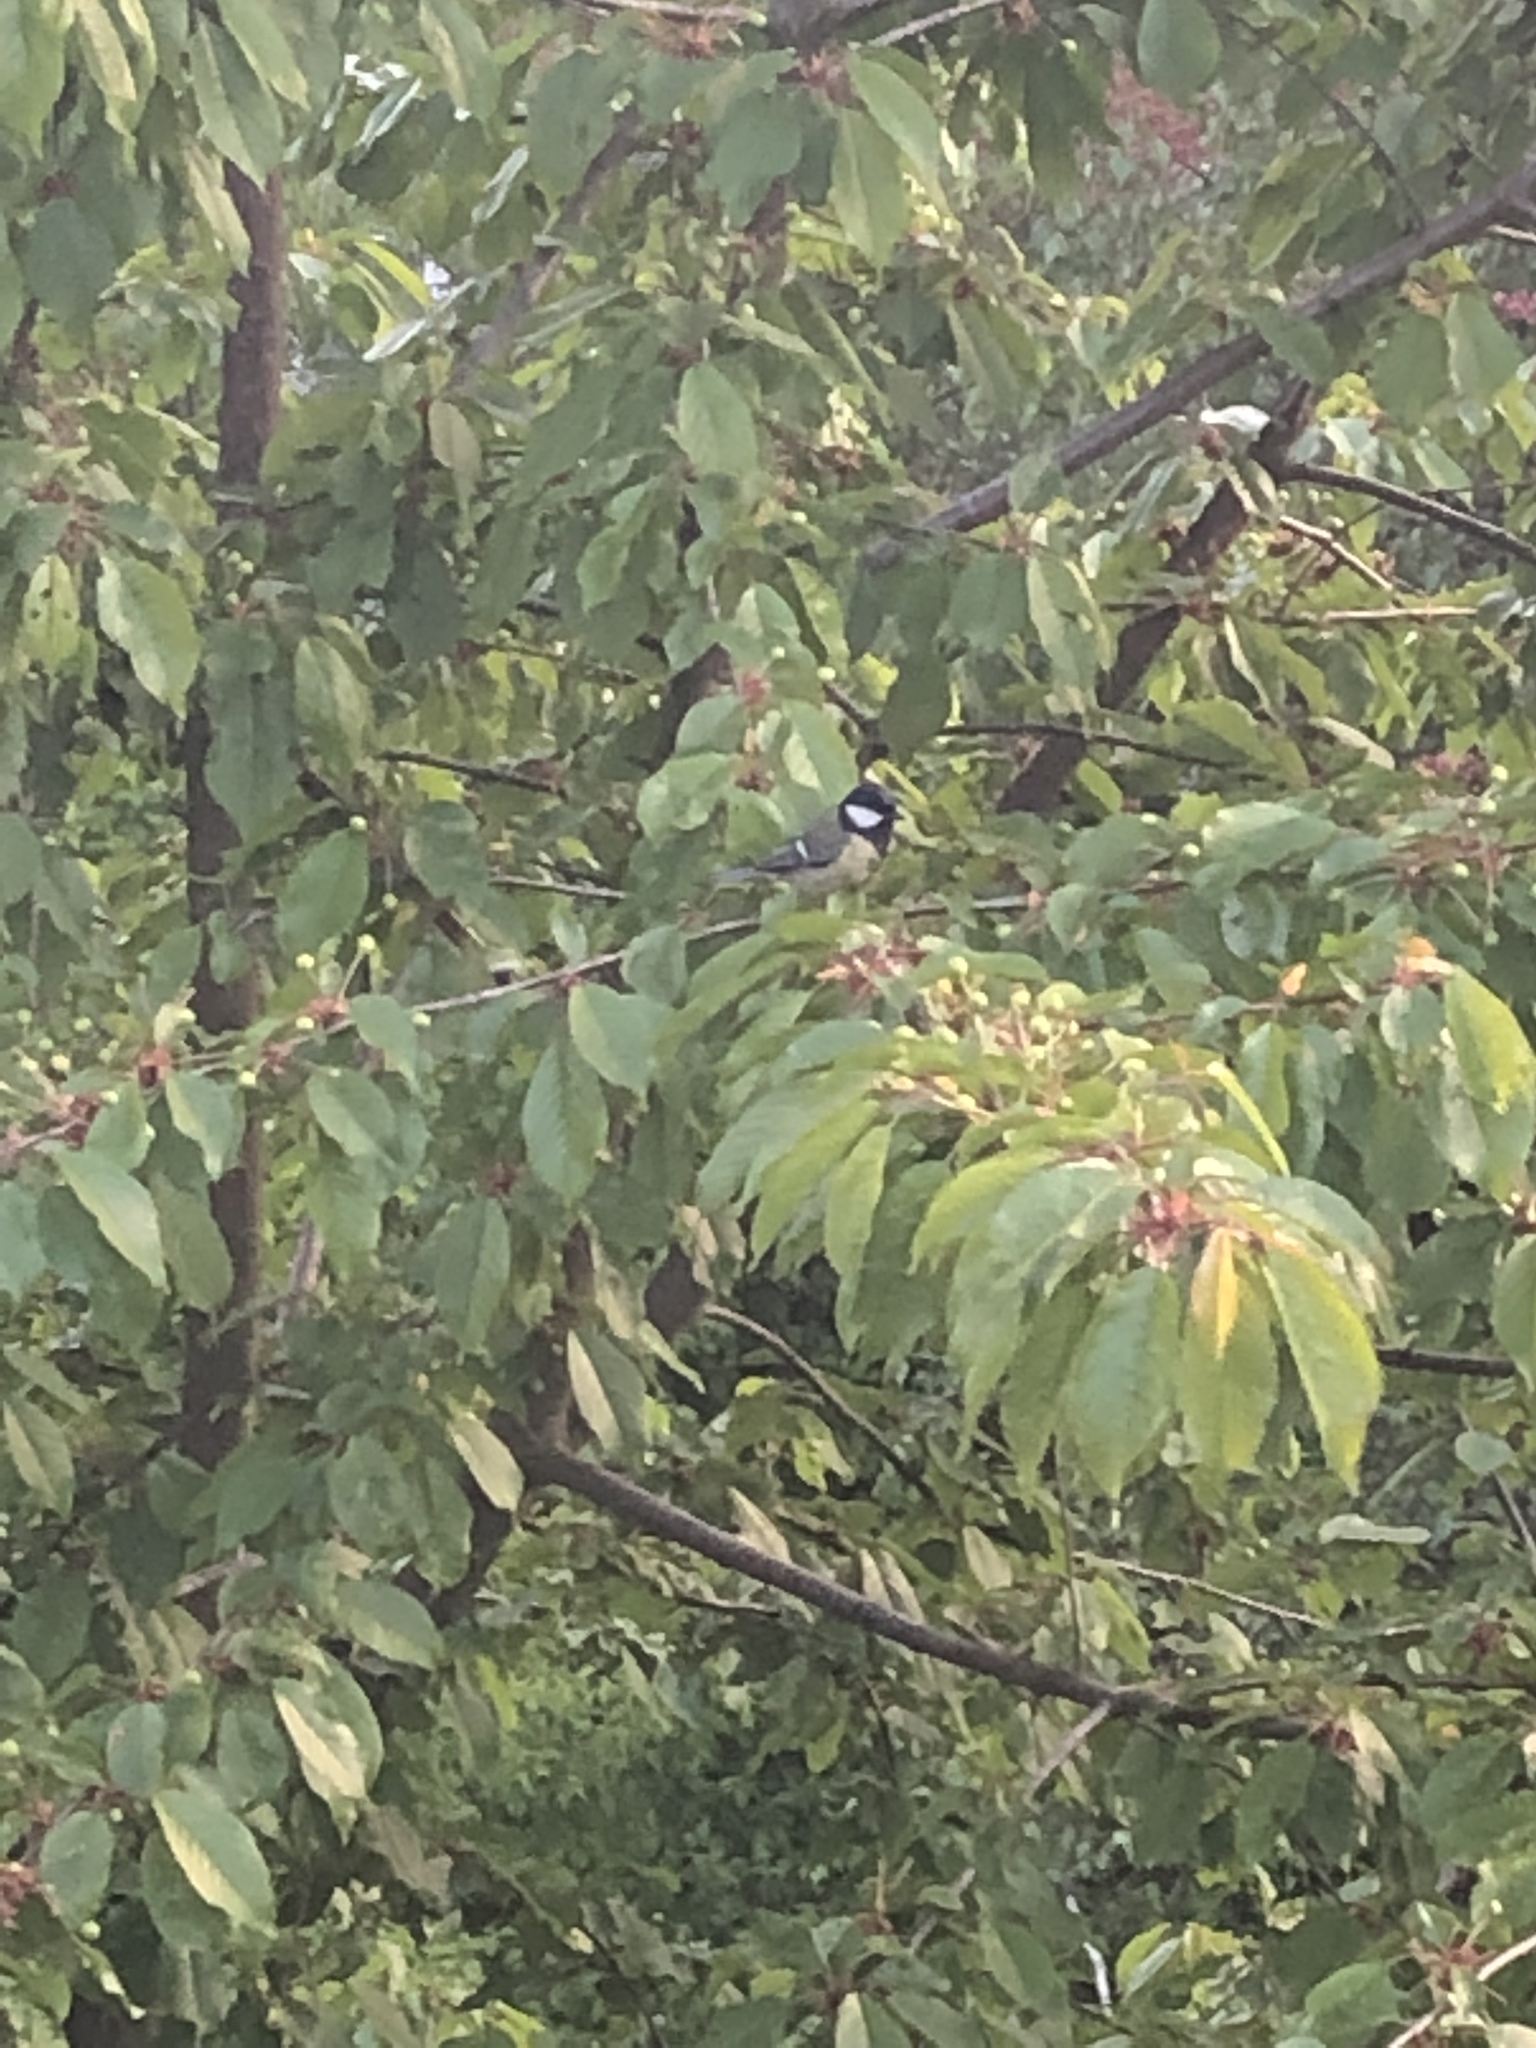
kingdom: Animalia
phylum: Chordata
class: Aves
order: Passeriformes
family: Paridae
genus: Parus
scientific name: Parus major
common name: Great tit
